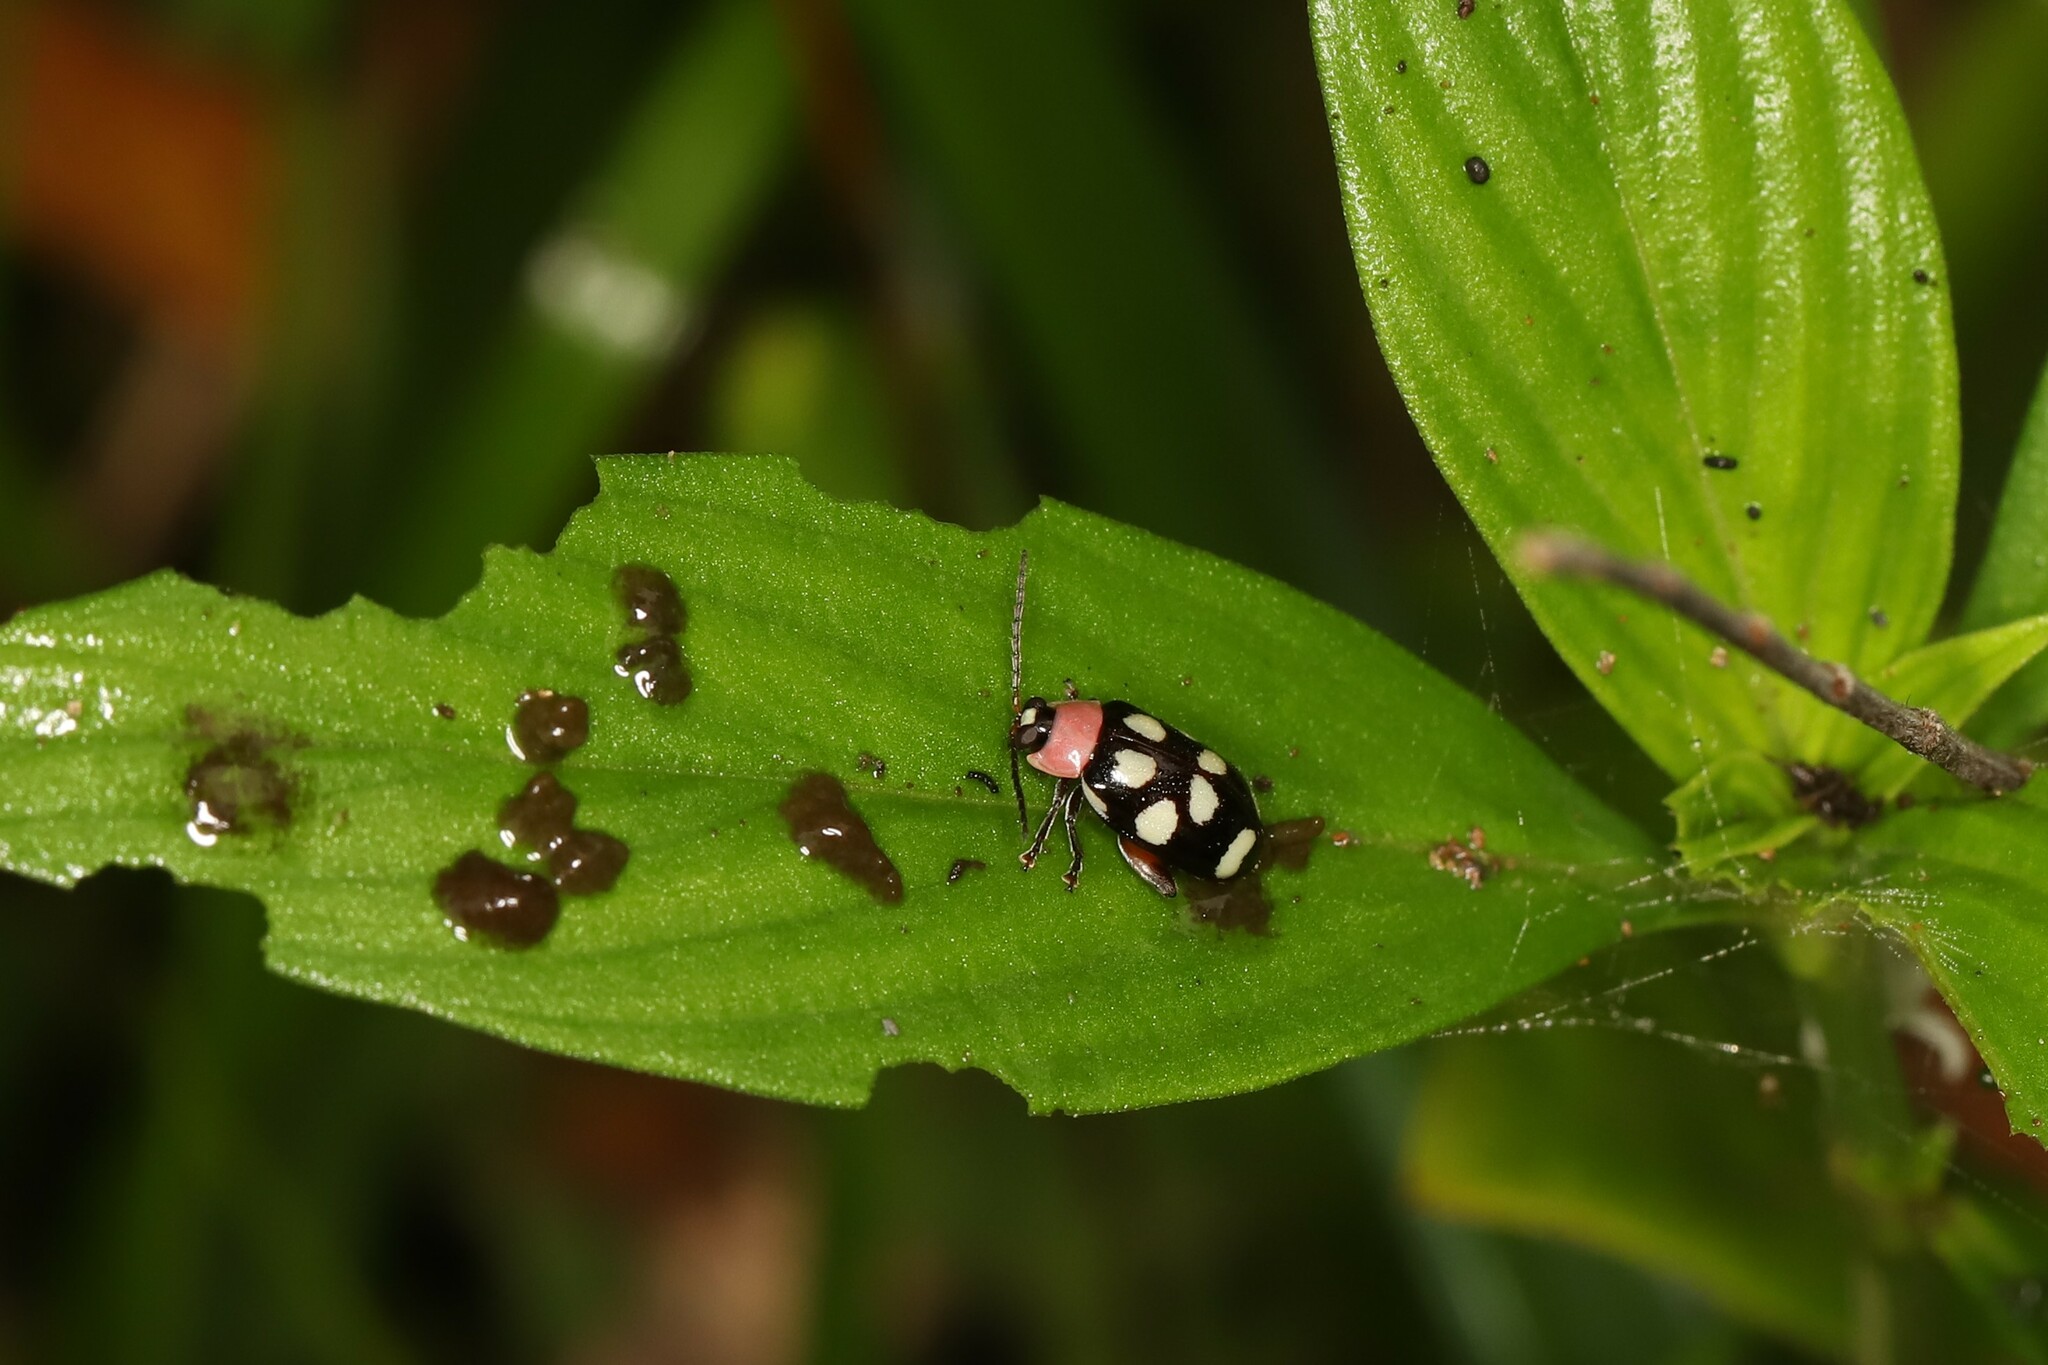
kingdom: Animalia
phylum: Arthropoda
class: Insecta
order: Coleoptera
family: Chrysomelidae
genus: Omophoita
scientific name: Omophoita aequinoctialis
